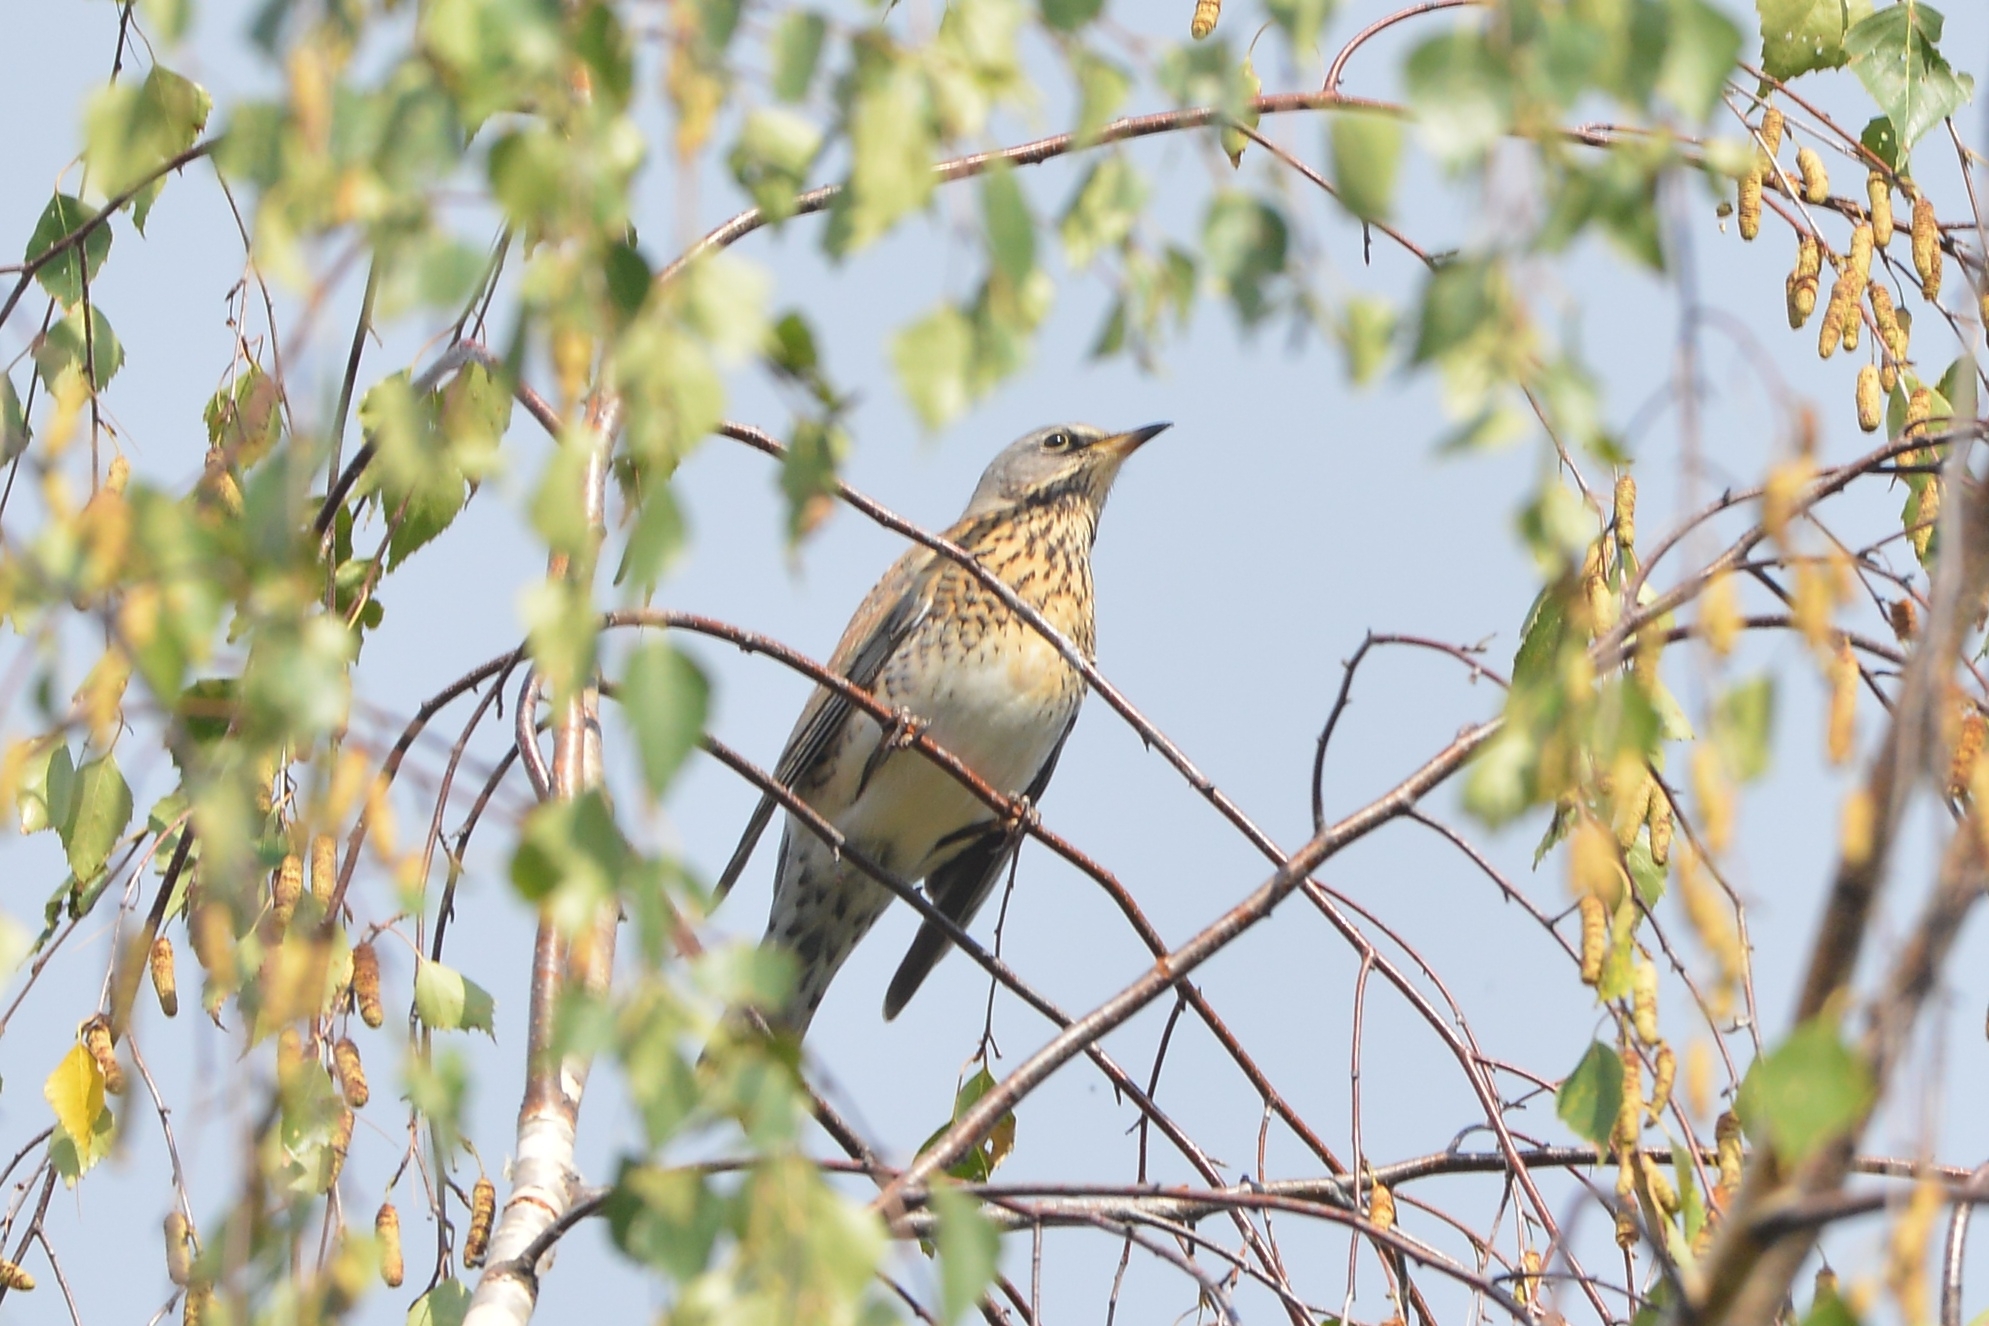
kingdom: Animalia
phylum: Chordata
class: Aves
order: Passeriformes
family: Turdidae
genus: Turdus
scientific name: Turdus pilaris
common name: Fieldfare
